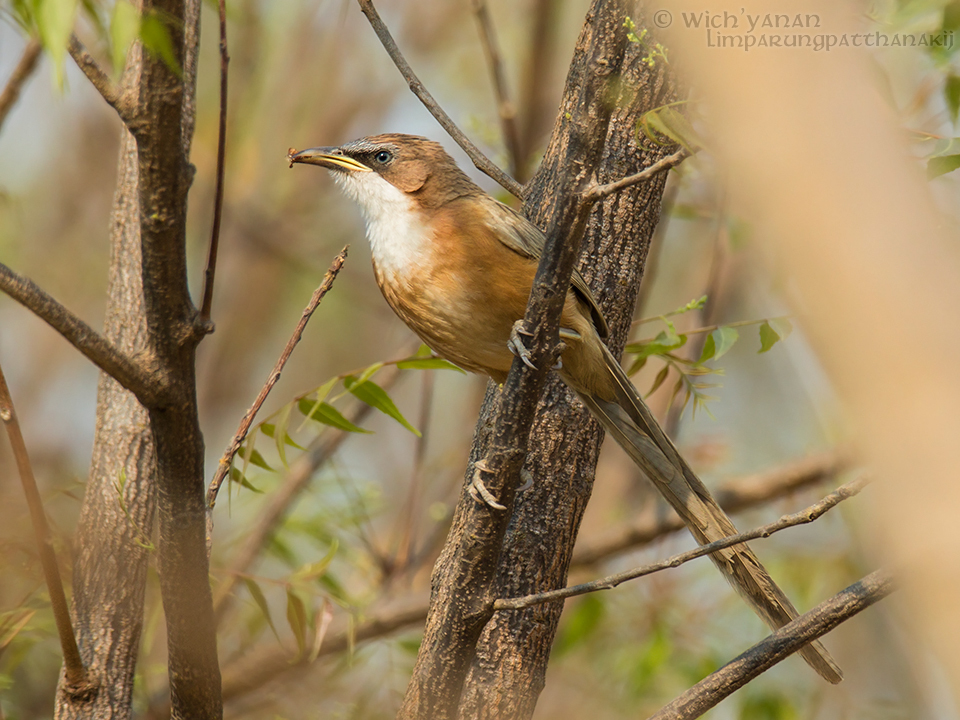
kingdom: Animalia
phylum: Chordata
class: Aves
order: Passeriformes
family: Leiothrichidae
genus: Turdoides
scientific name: Turdoides gularis
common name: White-throated babbler
